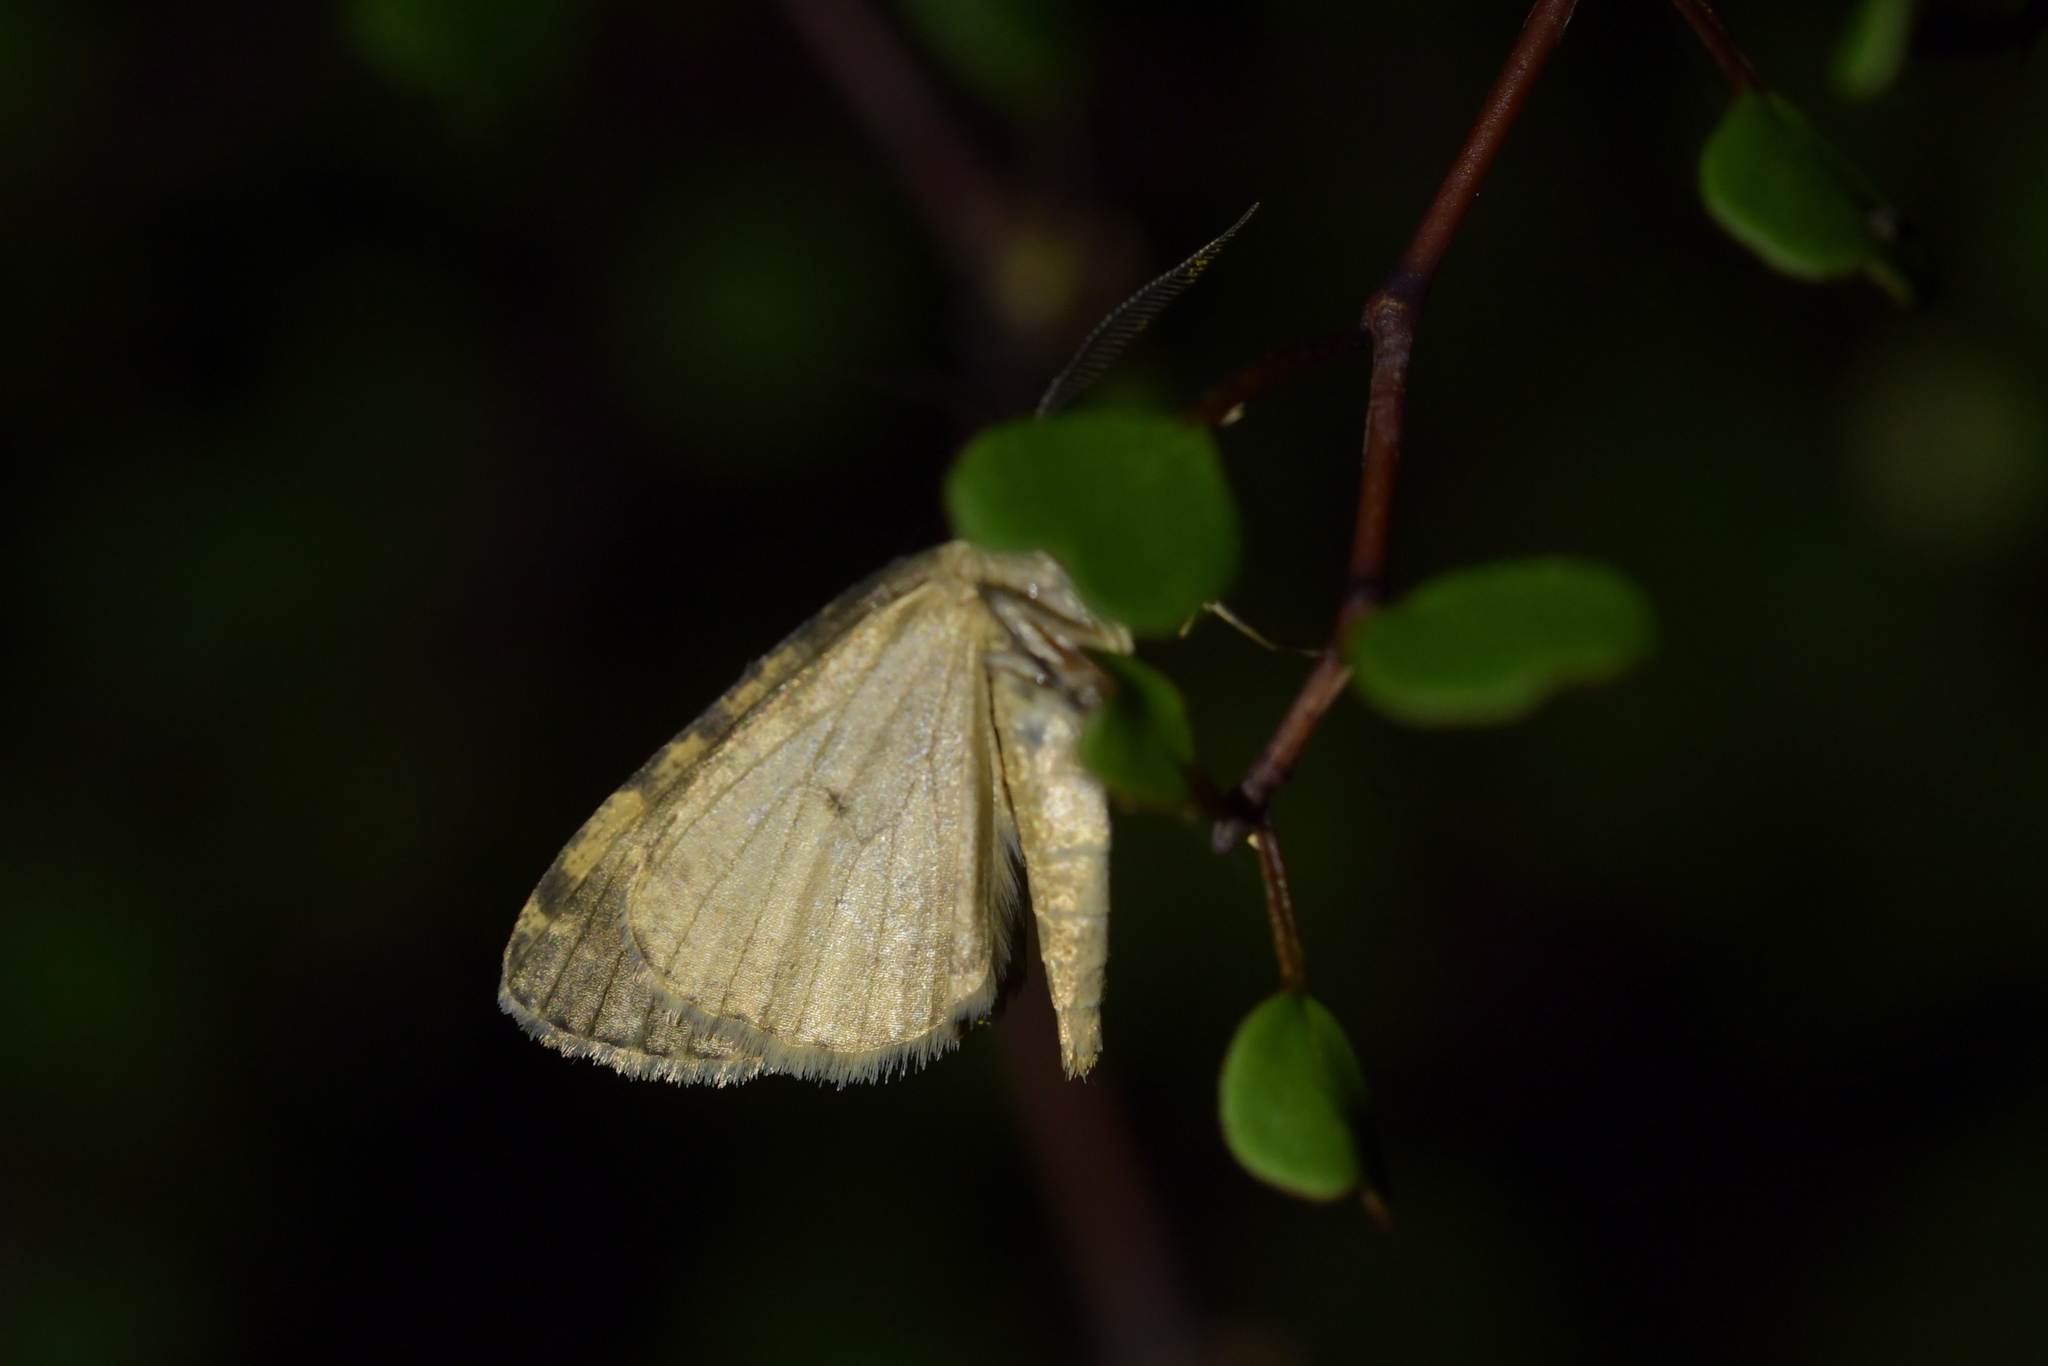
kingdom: Animalia
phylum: Arthropoda
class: Insecta
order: Lepidoptera
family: Geometridae
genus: Pseudocoremia
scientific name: Pseudocoremia indistincta
